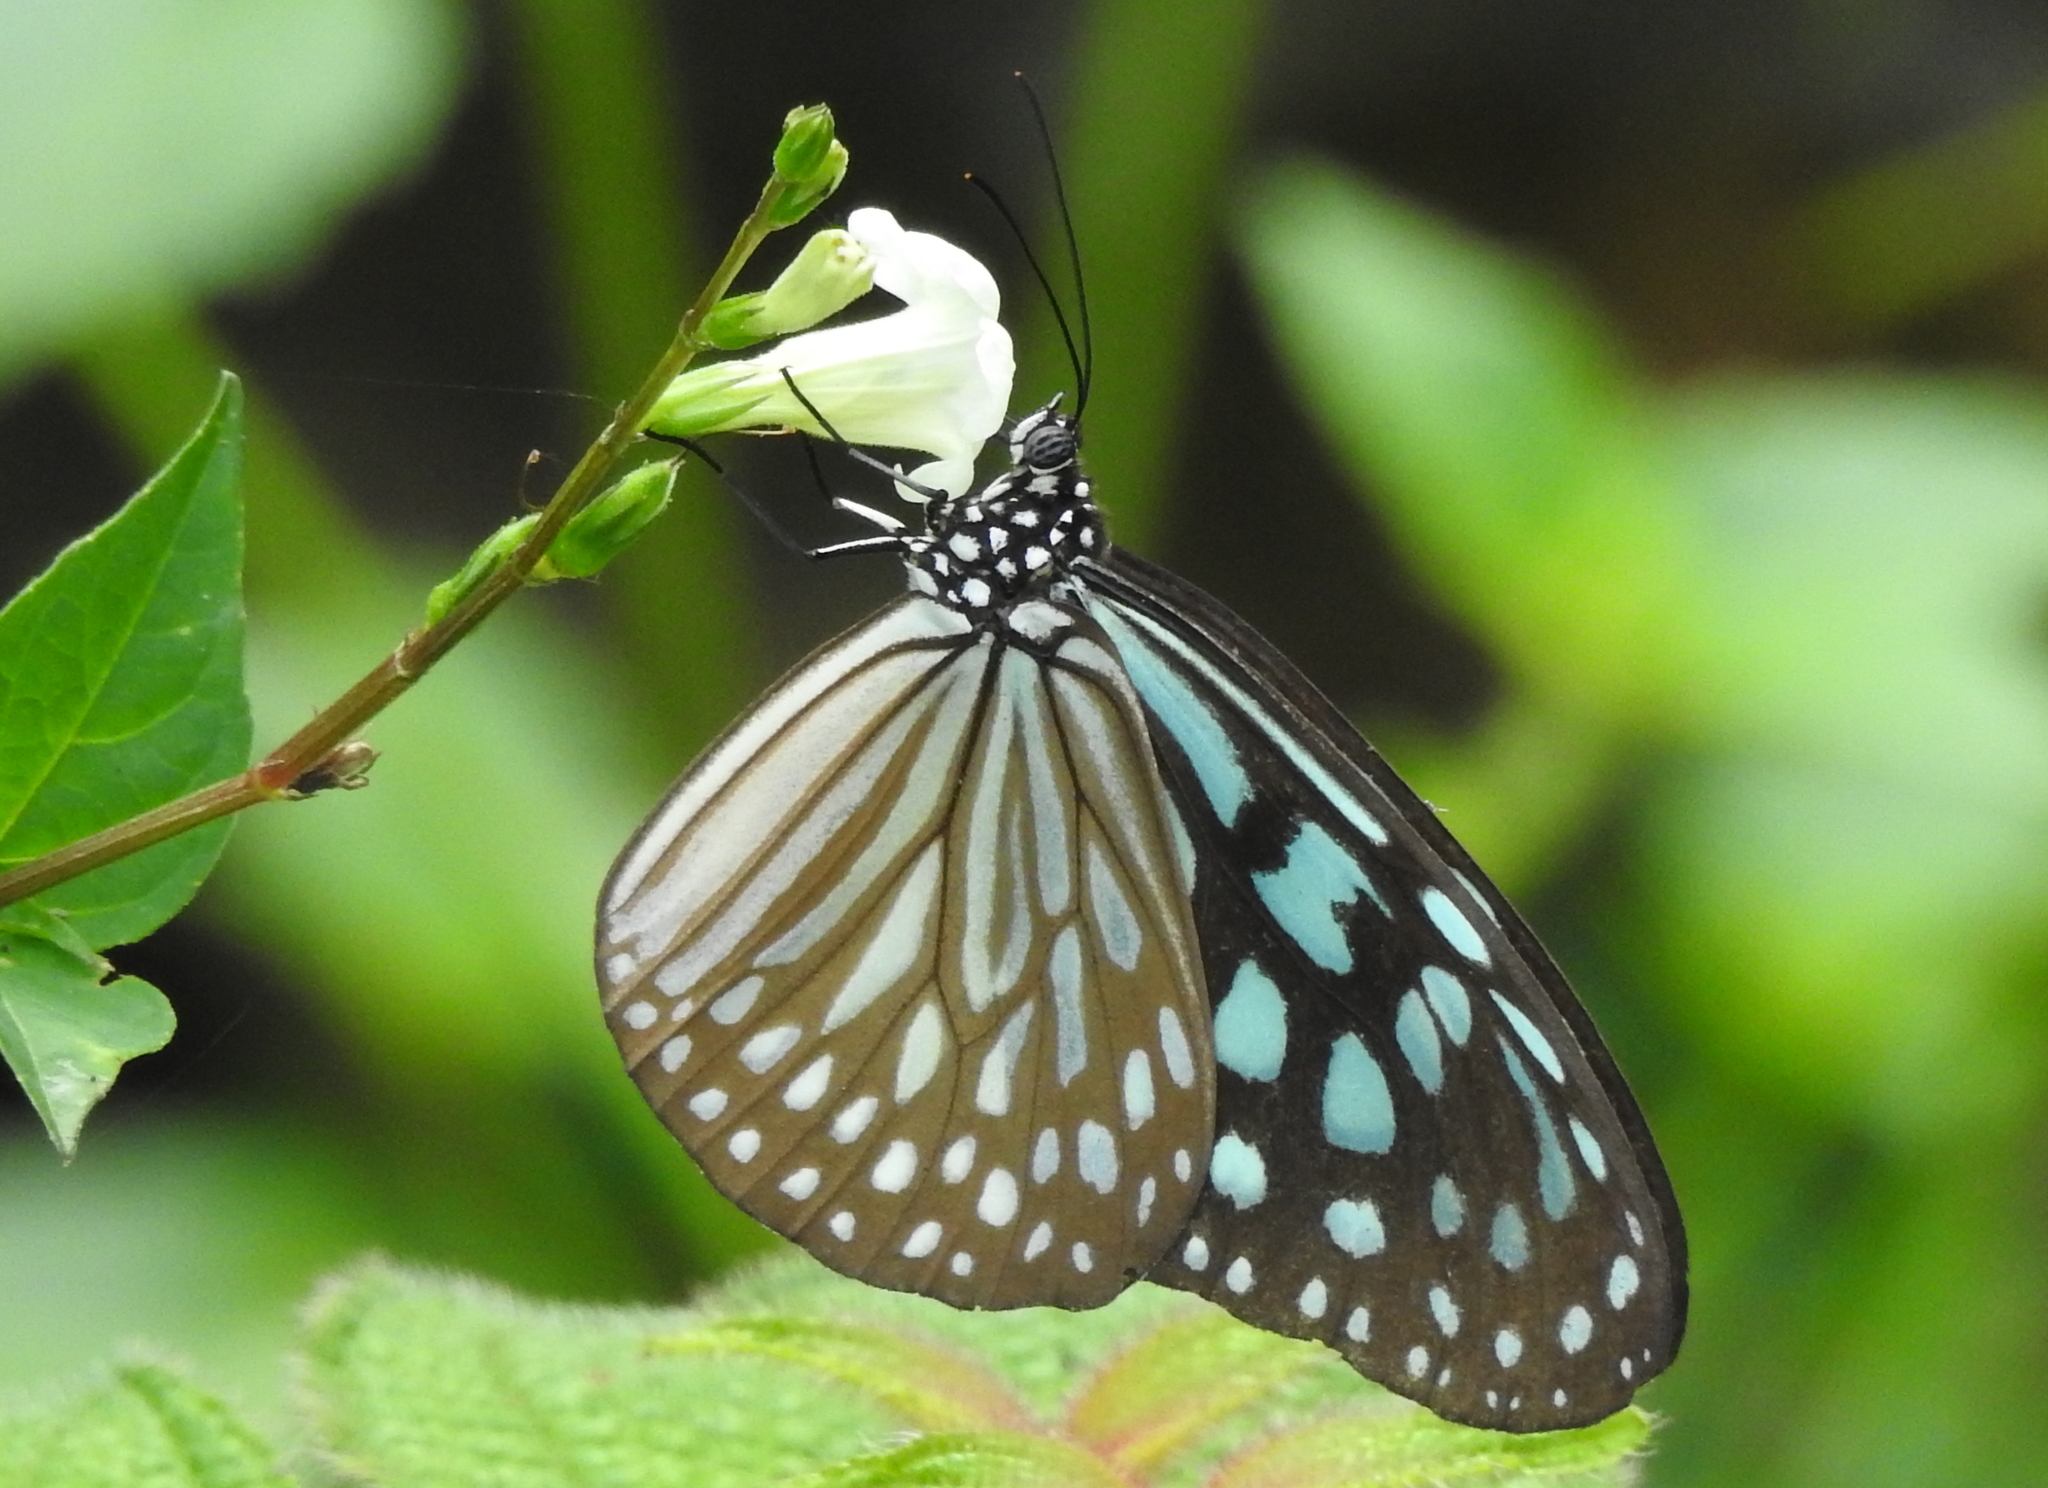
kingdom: Animalia
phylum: Arthropoda
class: Insecta
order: Lepidoptera
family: Nymphalidae
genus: Ideopsis
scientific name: Ideopsis similis
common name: Ceylon blue glassy tiger
